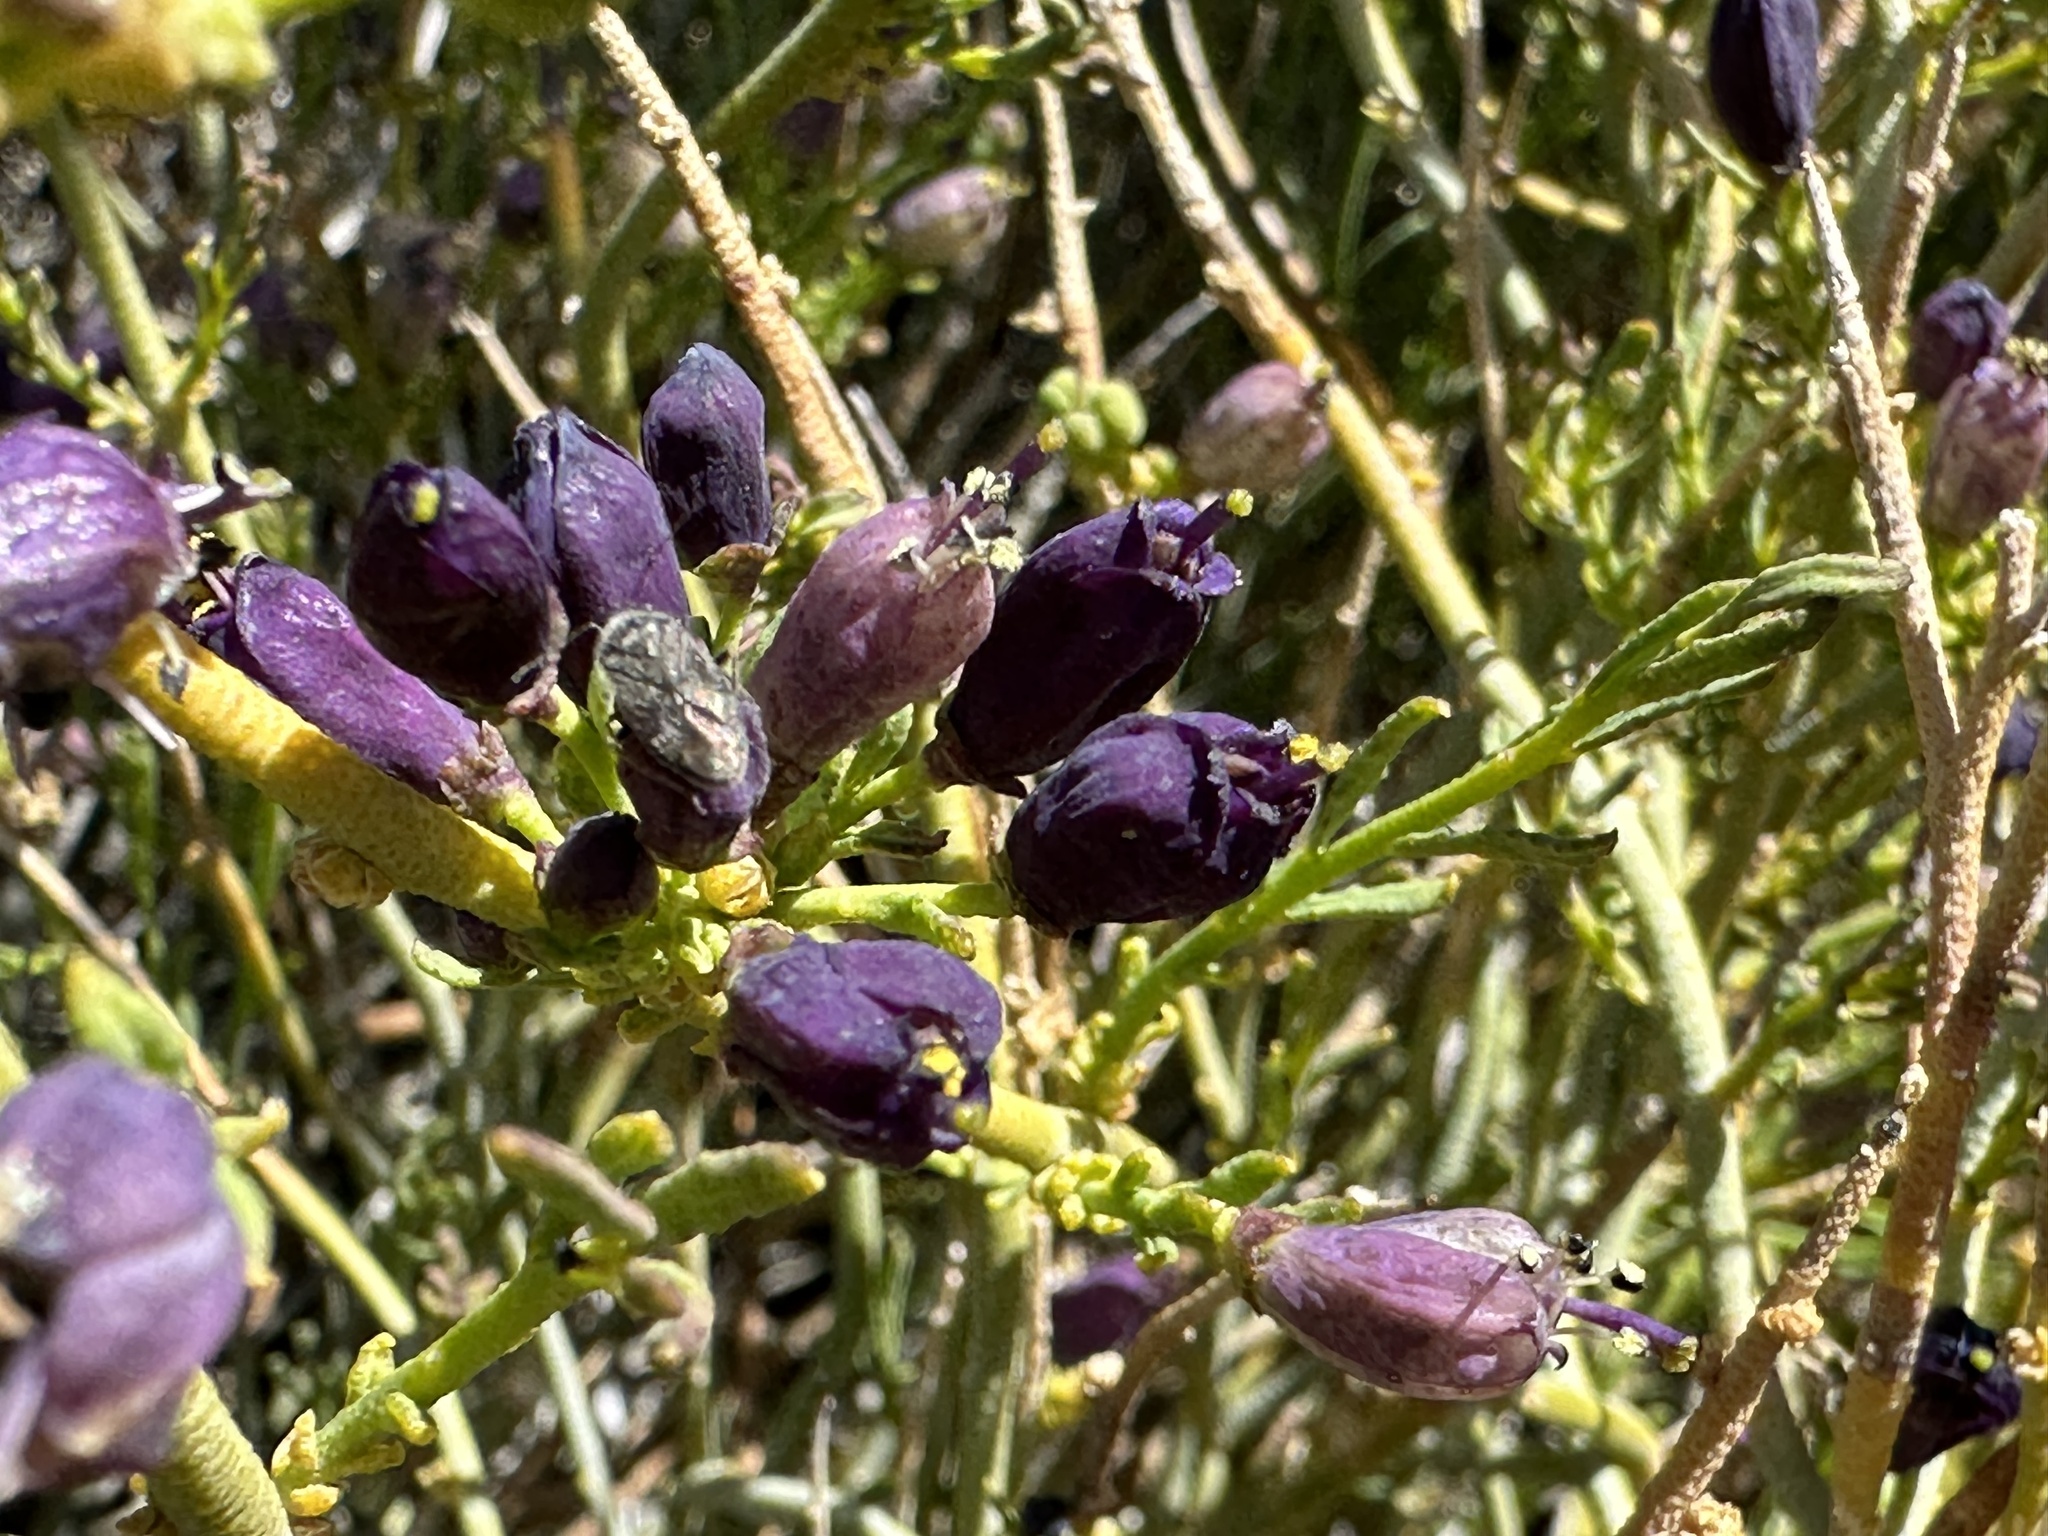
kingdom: Plantae
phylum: Tracheophyta
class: Magnoliopsida
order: Sapindales
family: Rutaceae
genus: Thamnosma
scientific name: Thamnosma montana
